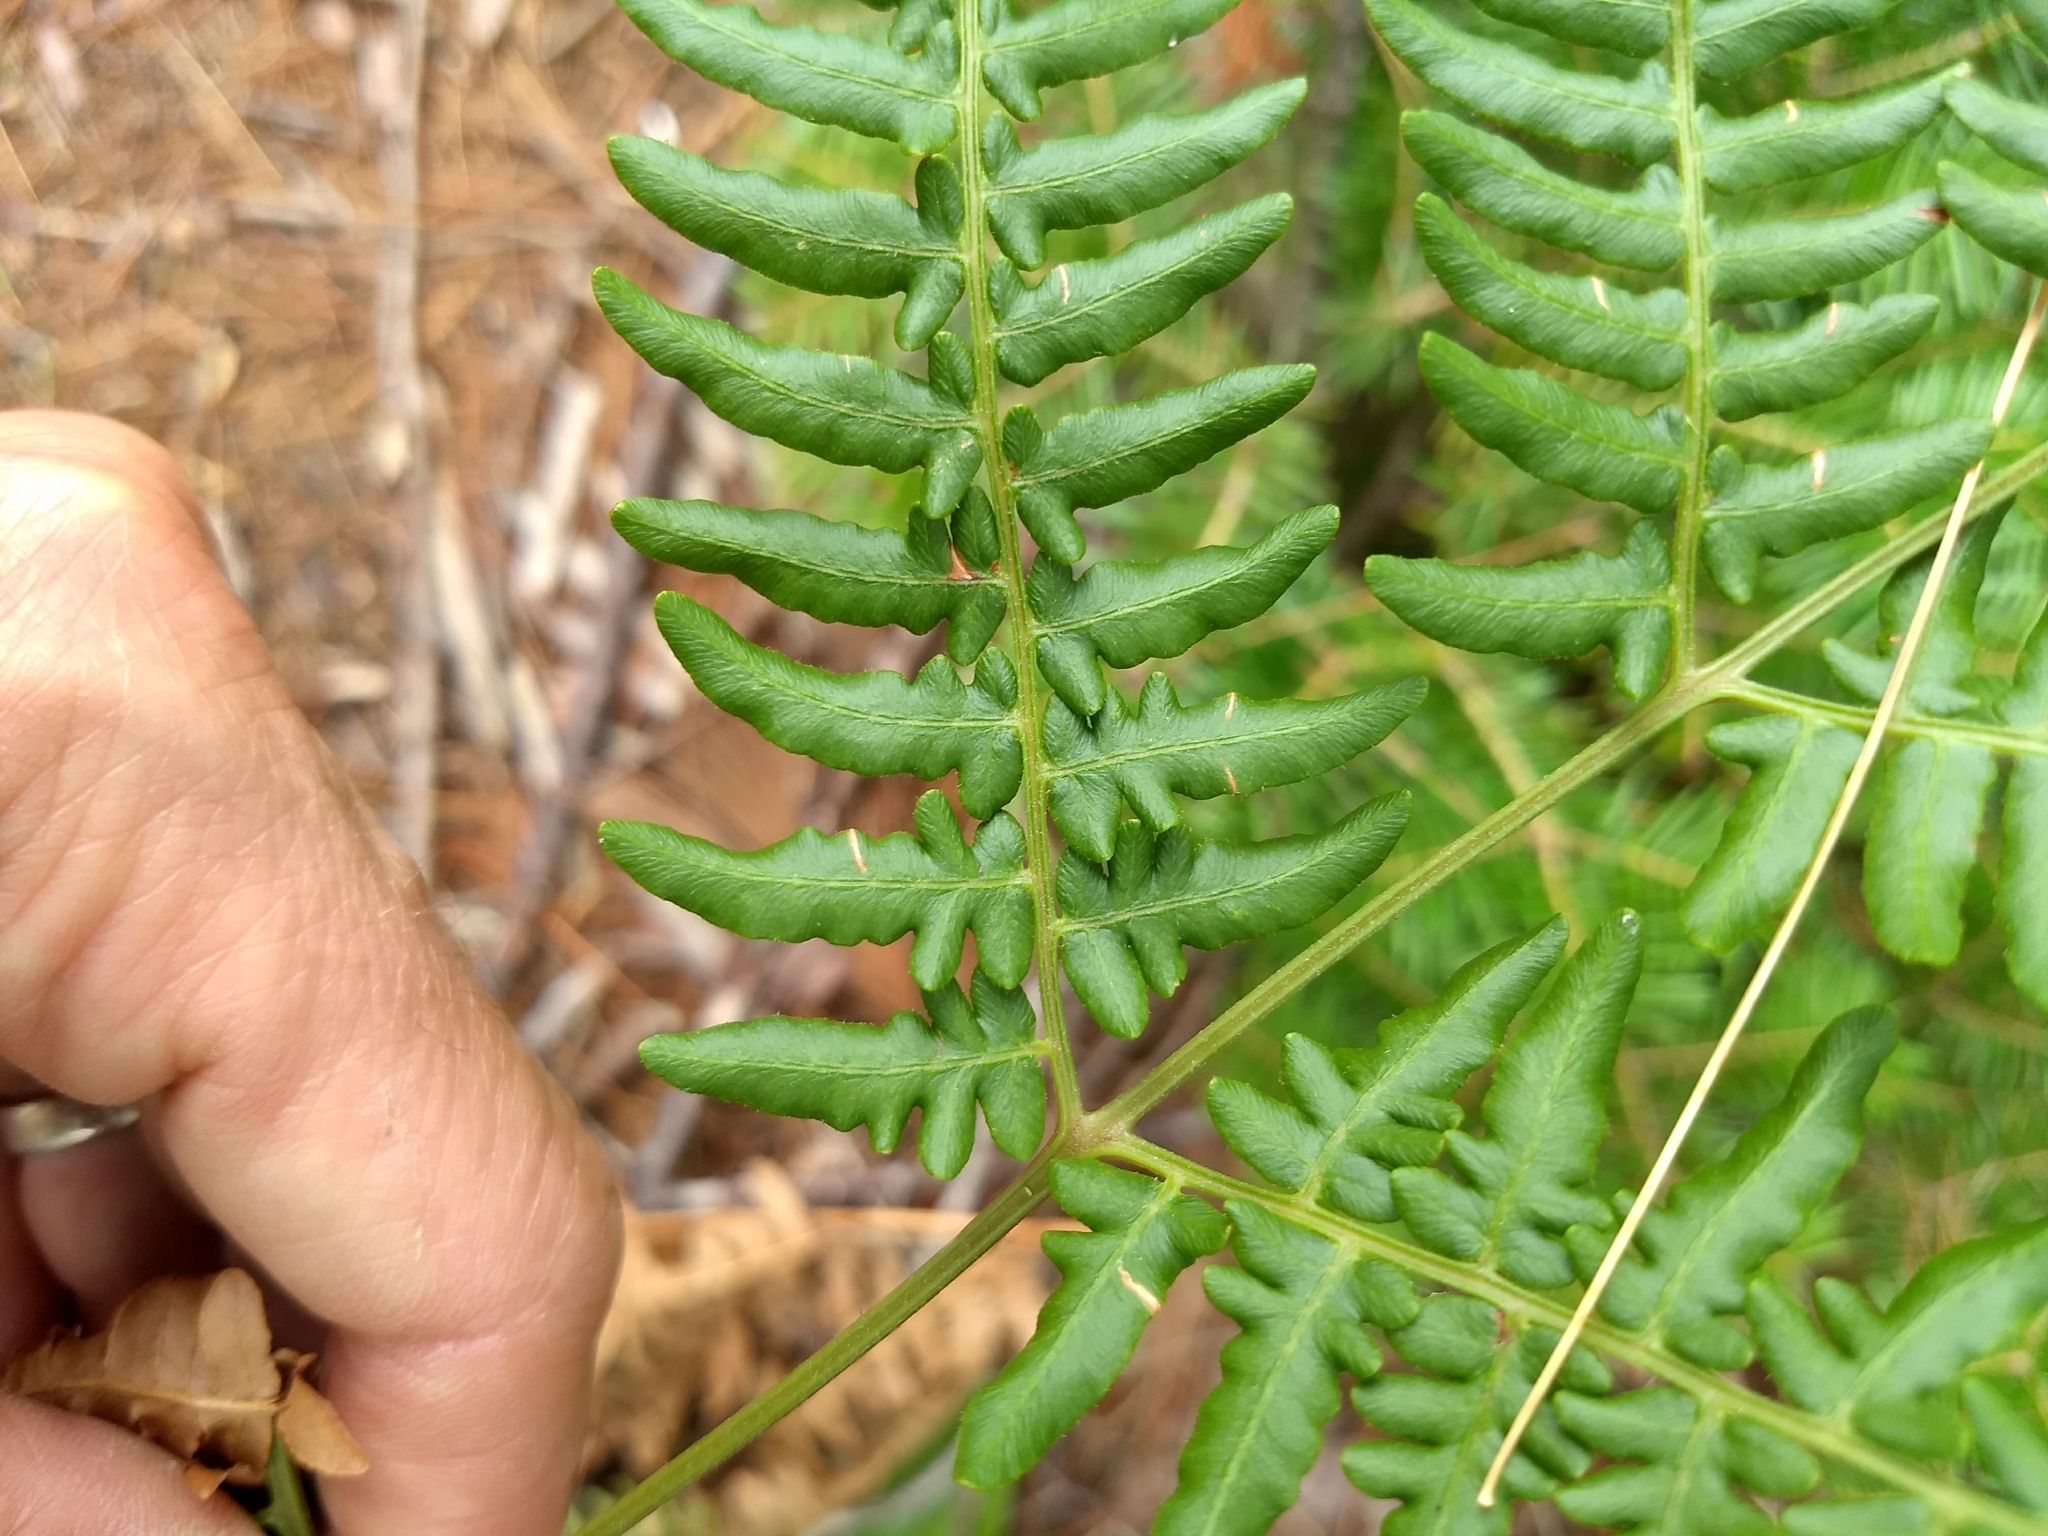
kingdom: Plantae
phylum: Tracheophyta
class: Polypodiopsida
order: Polypodiales
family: Dennstaedtiaceae
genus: Pteridium
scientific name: Pteridium aquilinum
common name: Bracken
